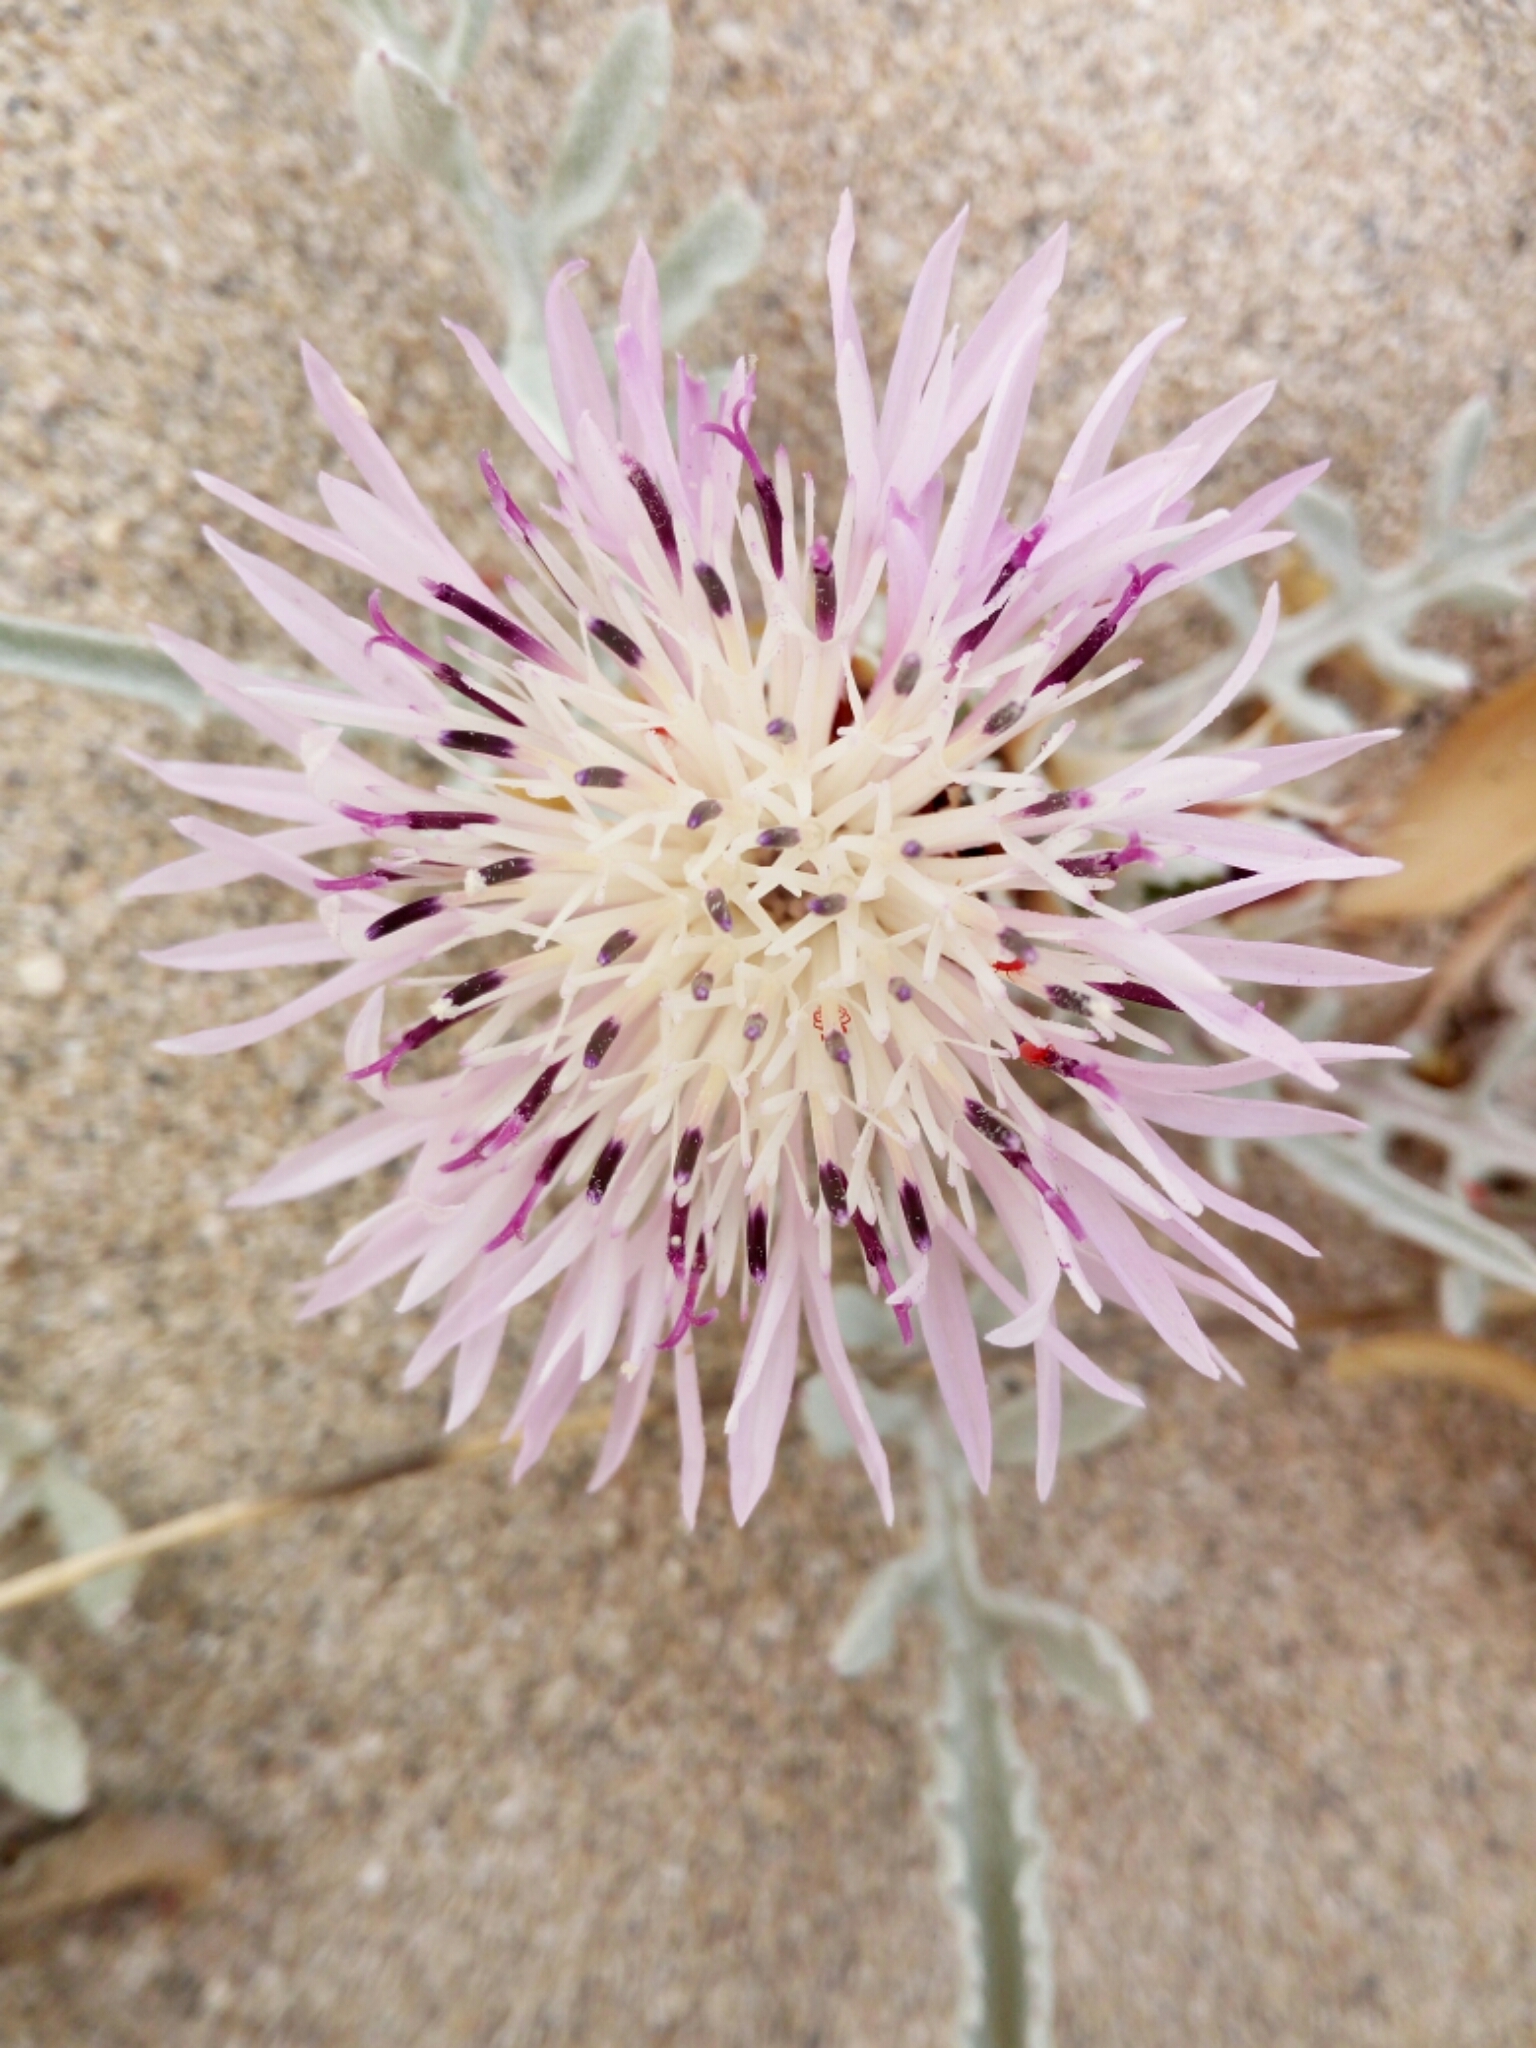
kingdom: Plantae
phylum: Tracheophyta
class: Magnoliopsida
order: Asterales
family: Asteraceae
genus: Crocodilium
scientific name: Crocodilium pumilio
